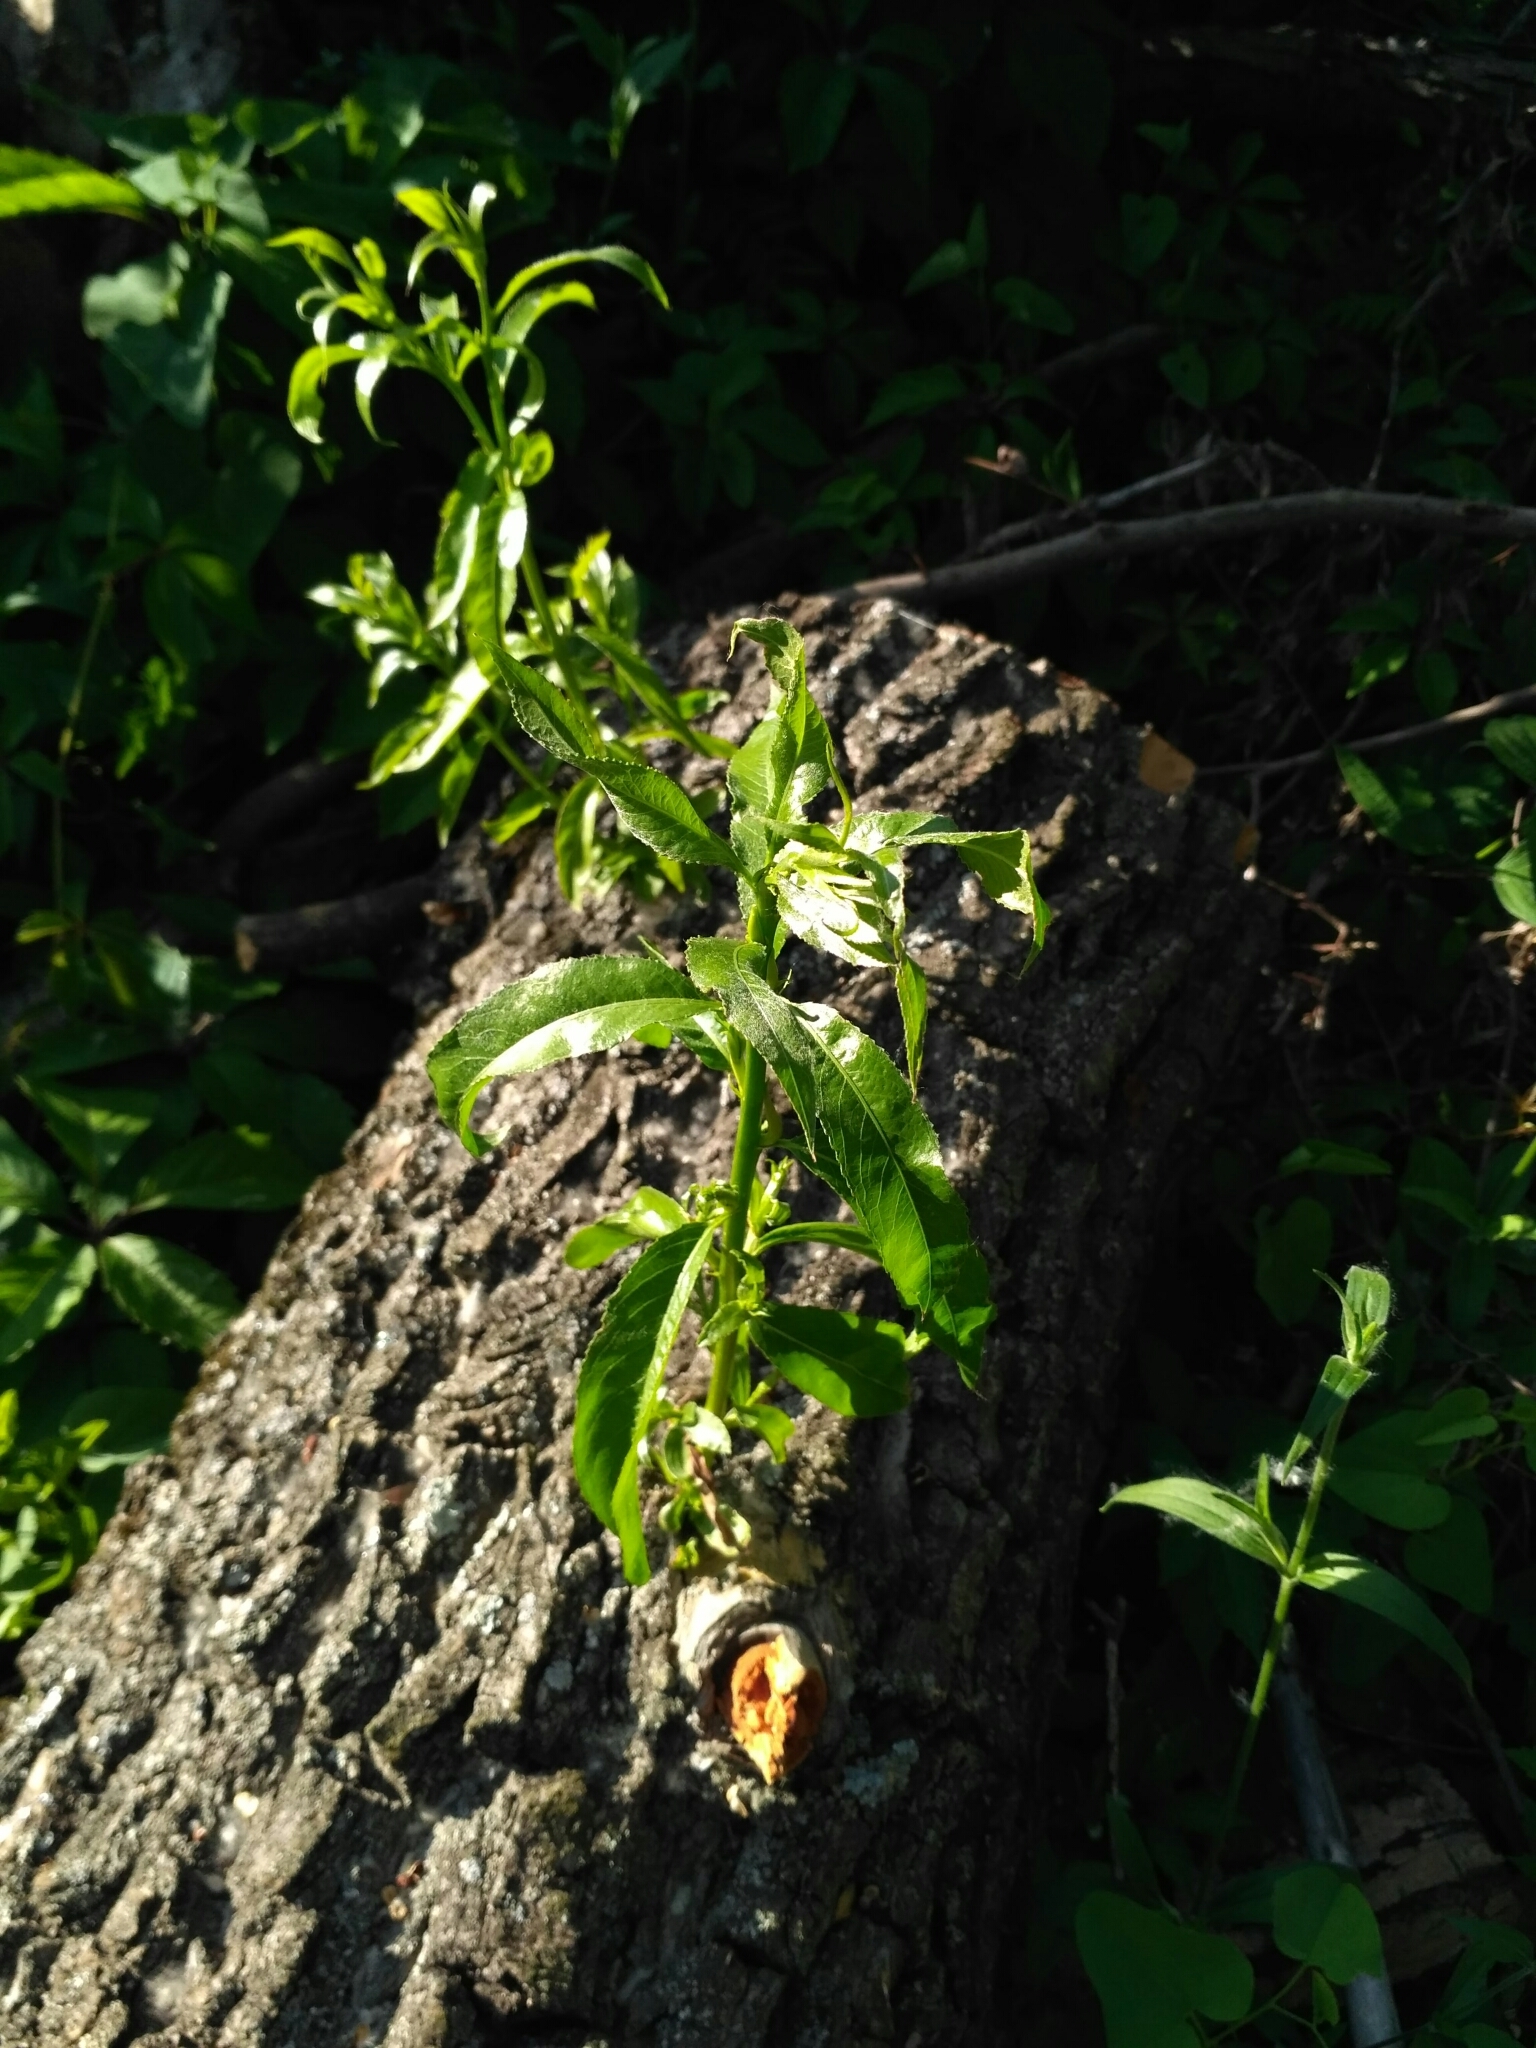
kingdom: Plantae
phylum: Tracheophyta
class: Magnoliopsida
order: Malpighiales
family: Salicaceae
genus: Salix
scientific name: Salix fragilis
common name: Crack willow
